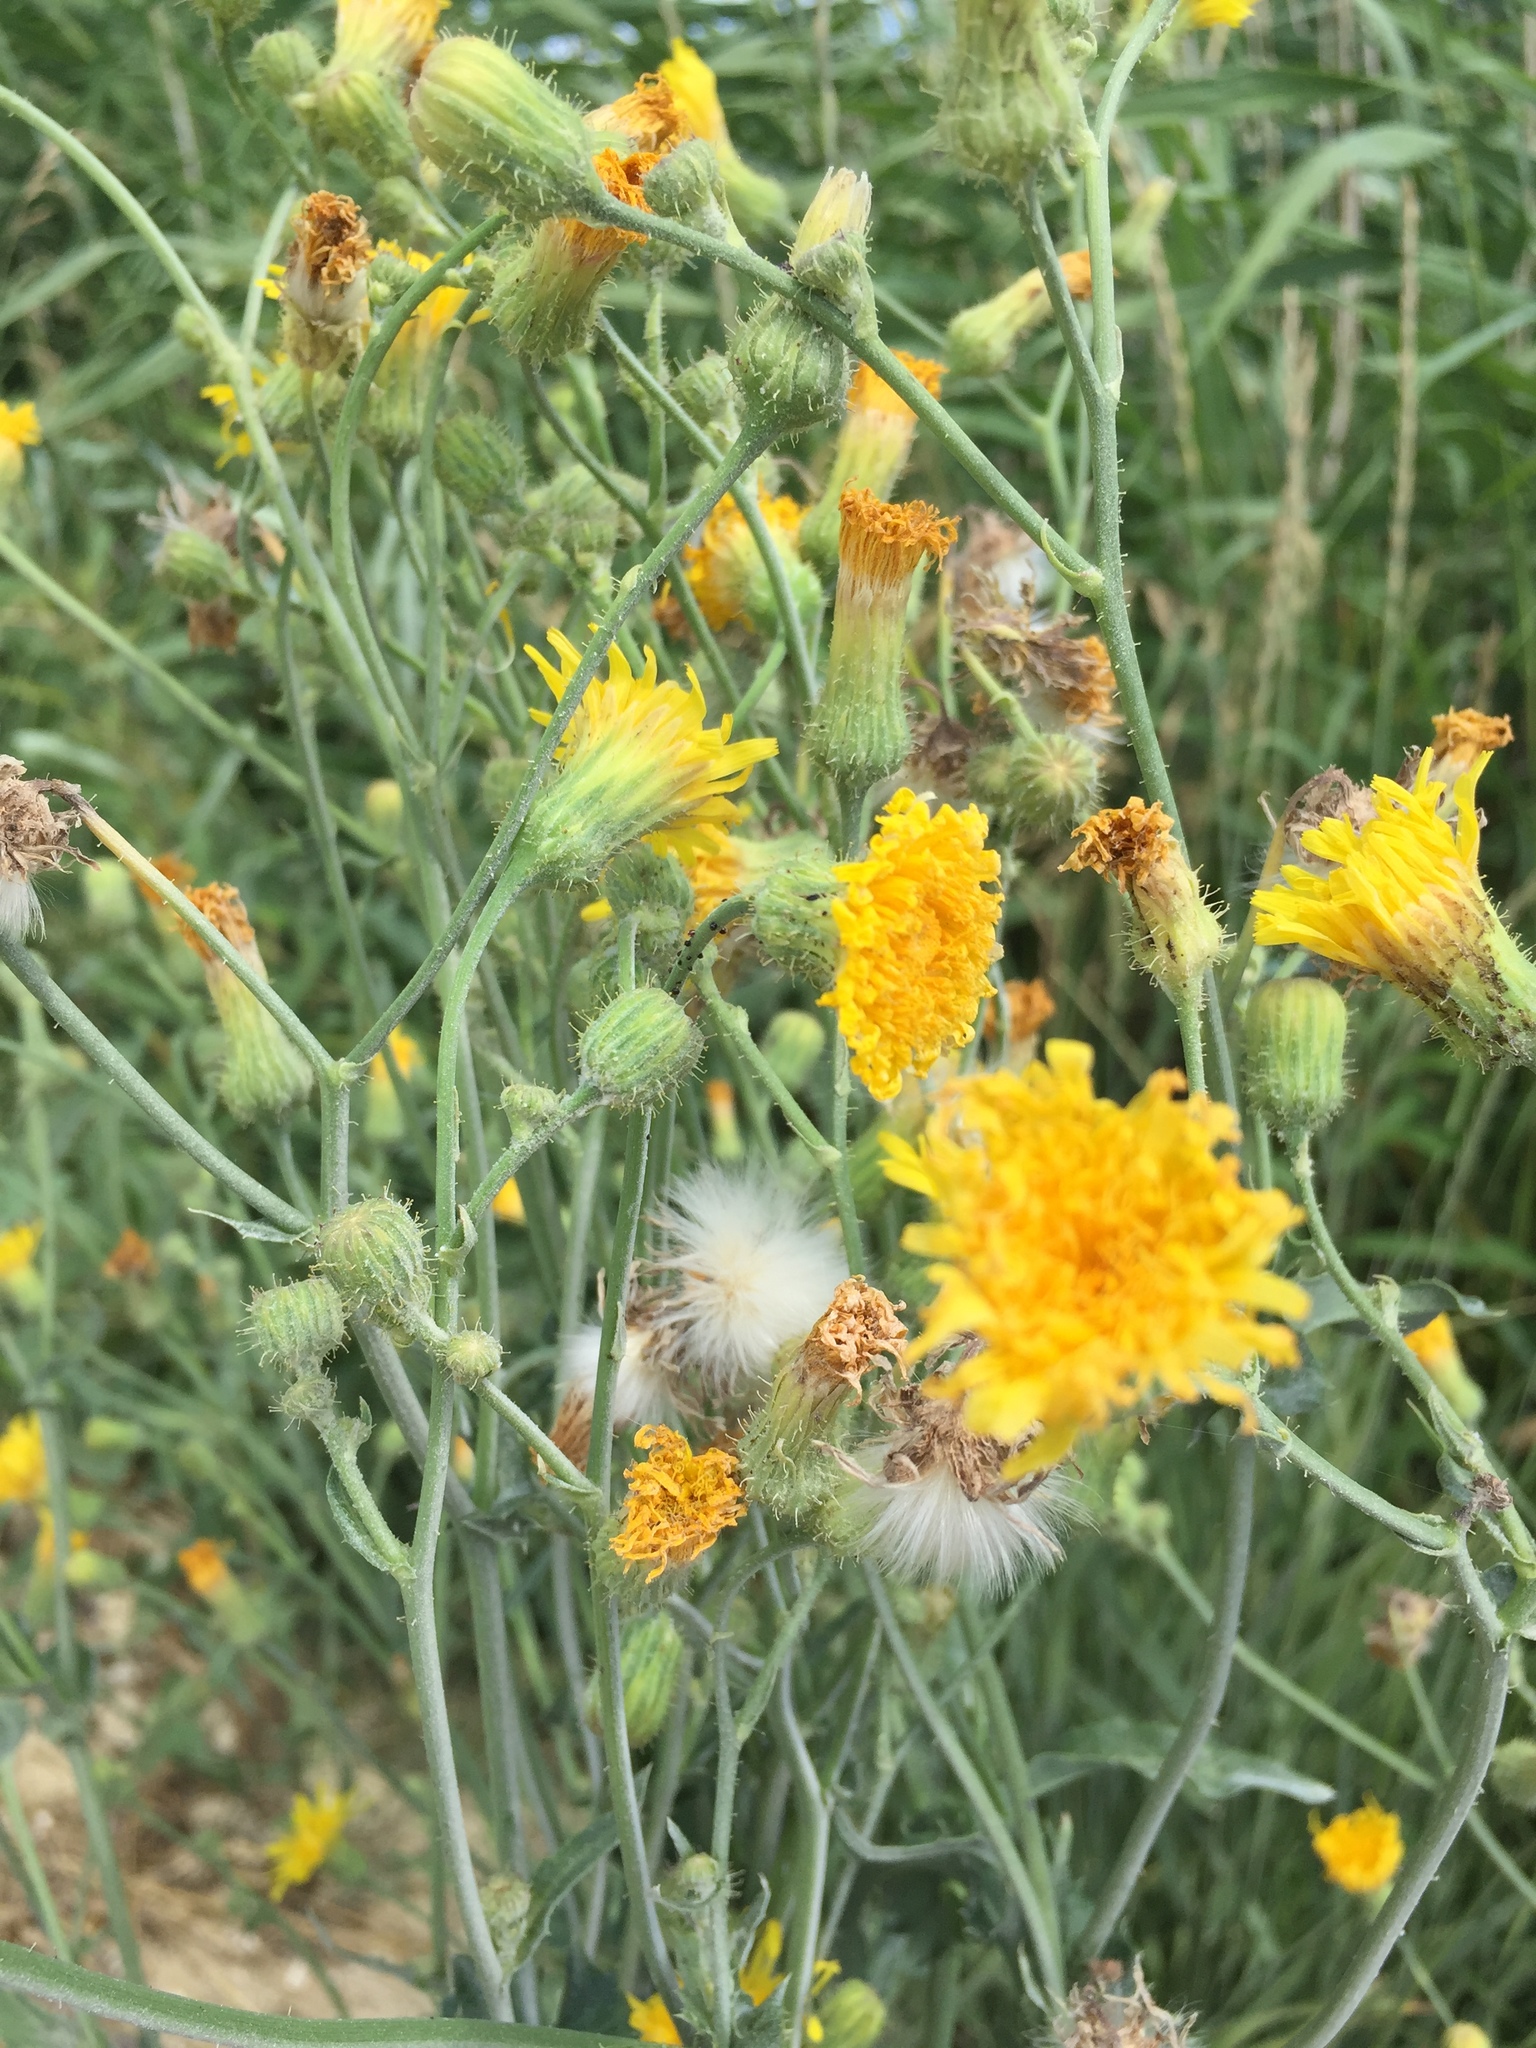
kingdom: Plantae
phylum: Tracheophyta
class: Magnoliopsida
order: Asterales
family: Asteraceae
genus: Sonchus
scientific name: Sonchus arvensis
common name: Perennial sow-thistle
